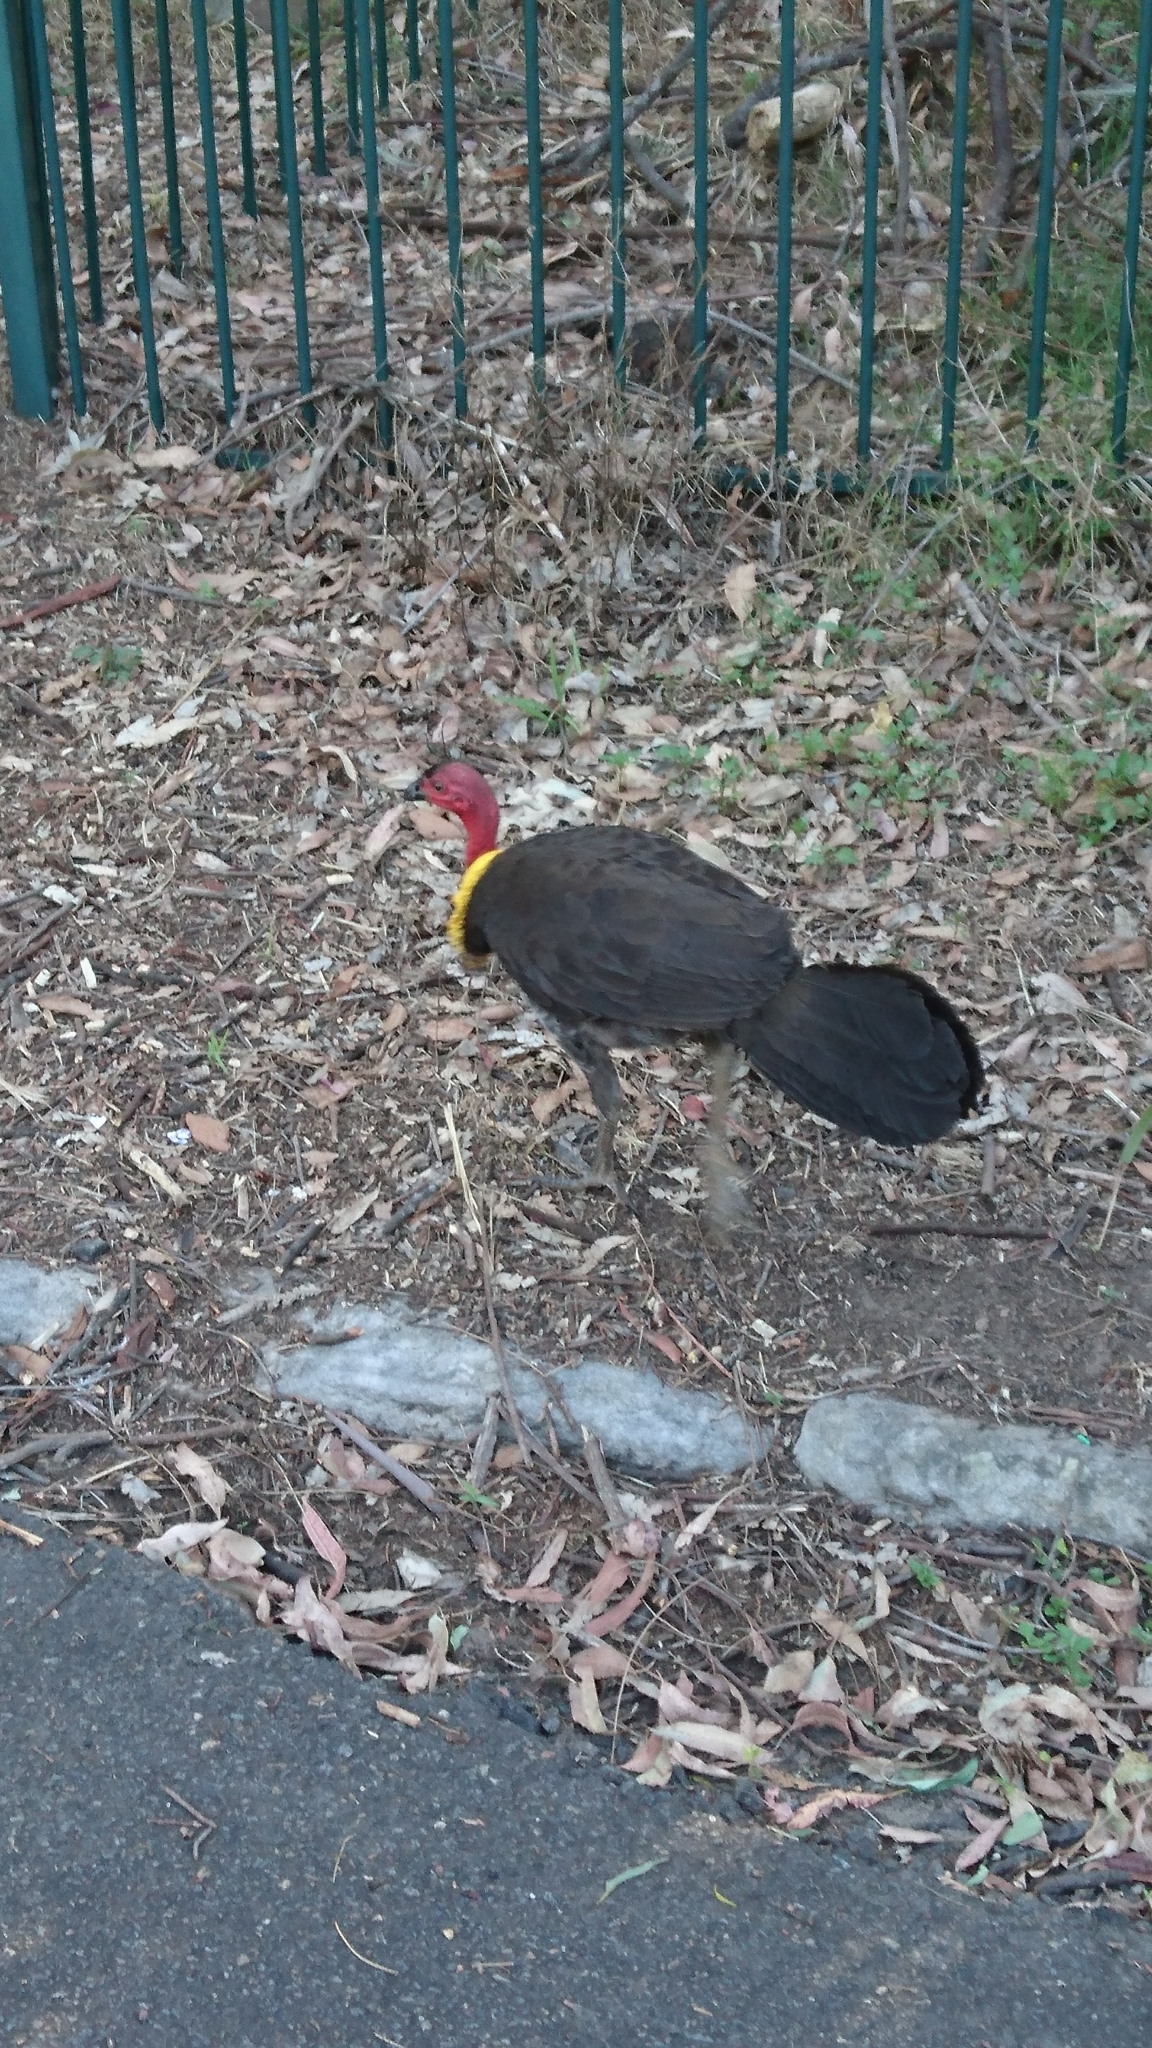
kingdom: Animalia
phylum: Chordata
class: Aves
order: Galliformes
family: Megapodiidae
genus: Alectura
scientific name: Alectura lathami
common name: Australian brushturkey
